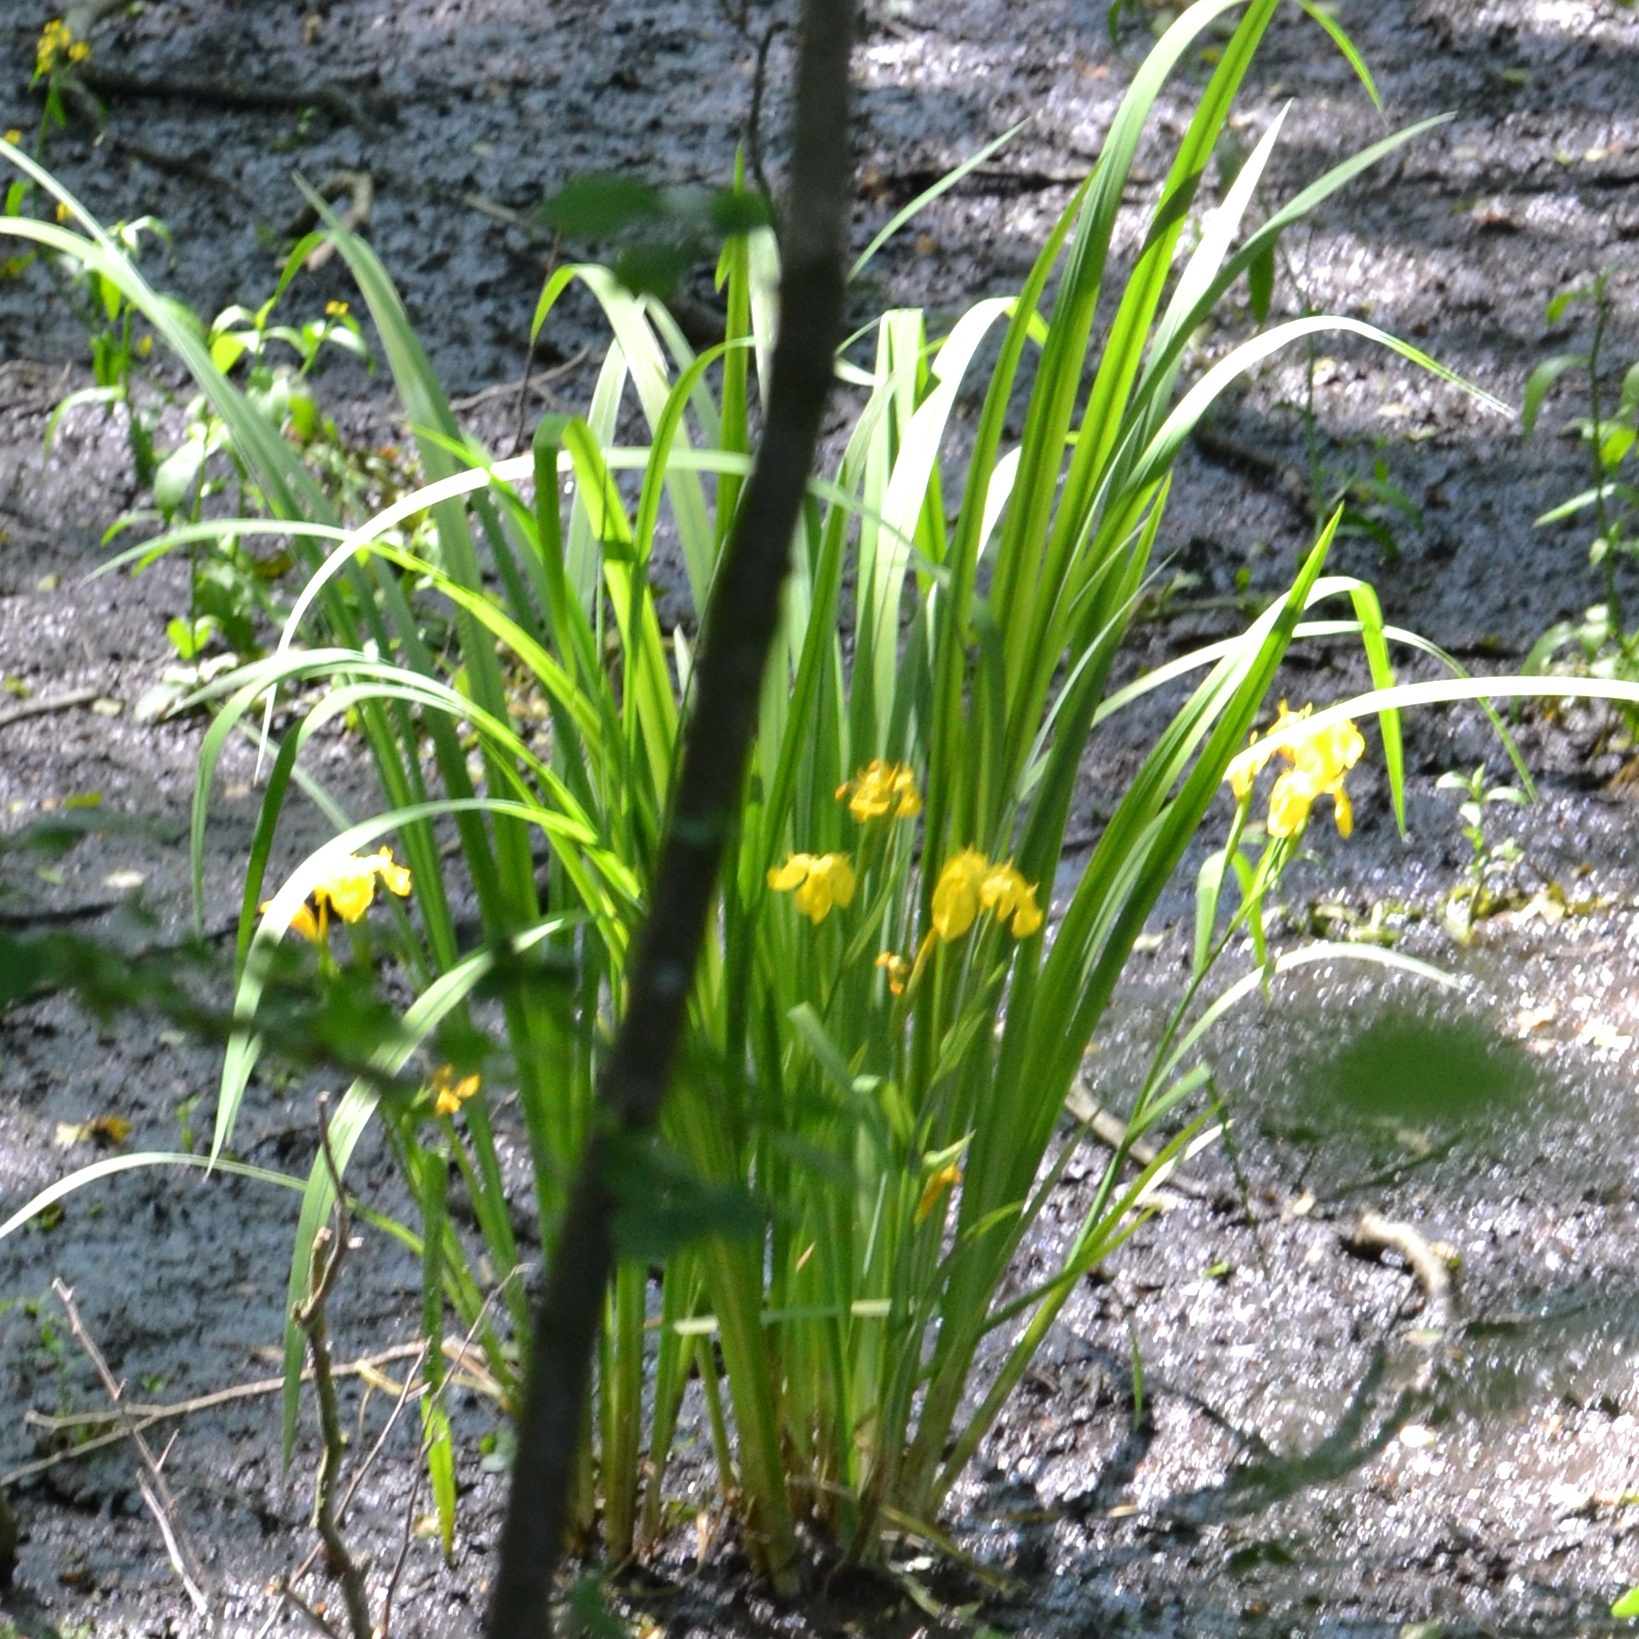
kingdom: Plantae
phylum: Tracheophyta
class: Liliopsida
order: Asparagales
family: Iridaceae
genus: Iris
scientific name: Iris pseudacorus
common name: Yellow flag
